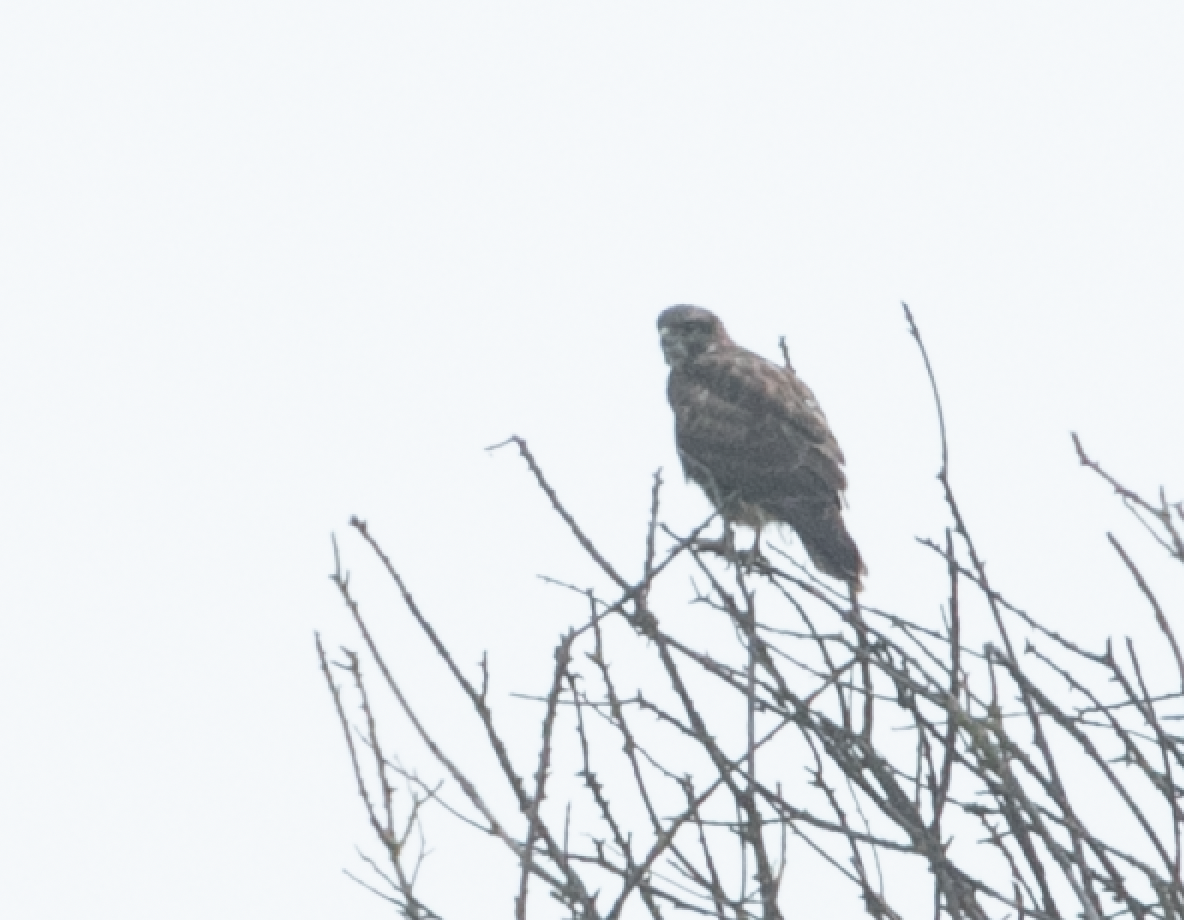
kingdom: Animalia
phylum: Chordata
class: Aves
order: Accipitriformes
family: Accipitridae
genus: Buteo
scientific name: Buteo buteo
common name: Common buzzard
